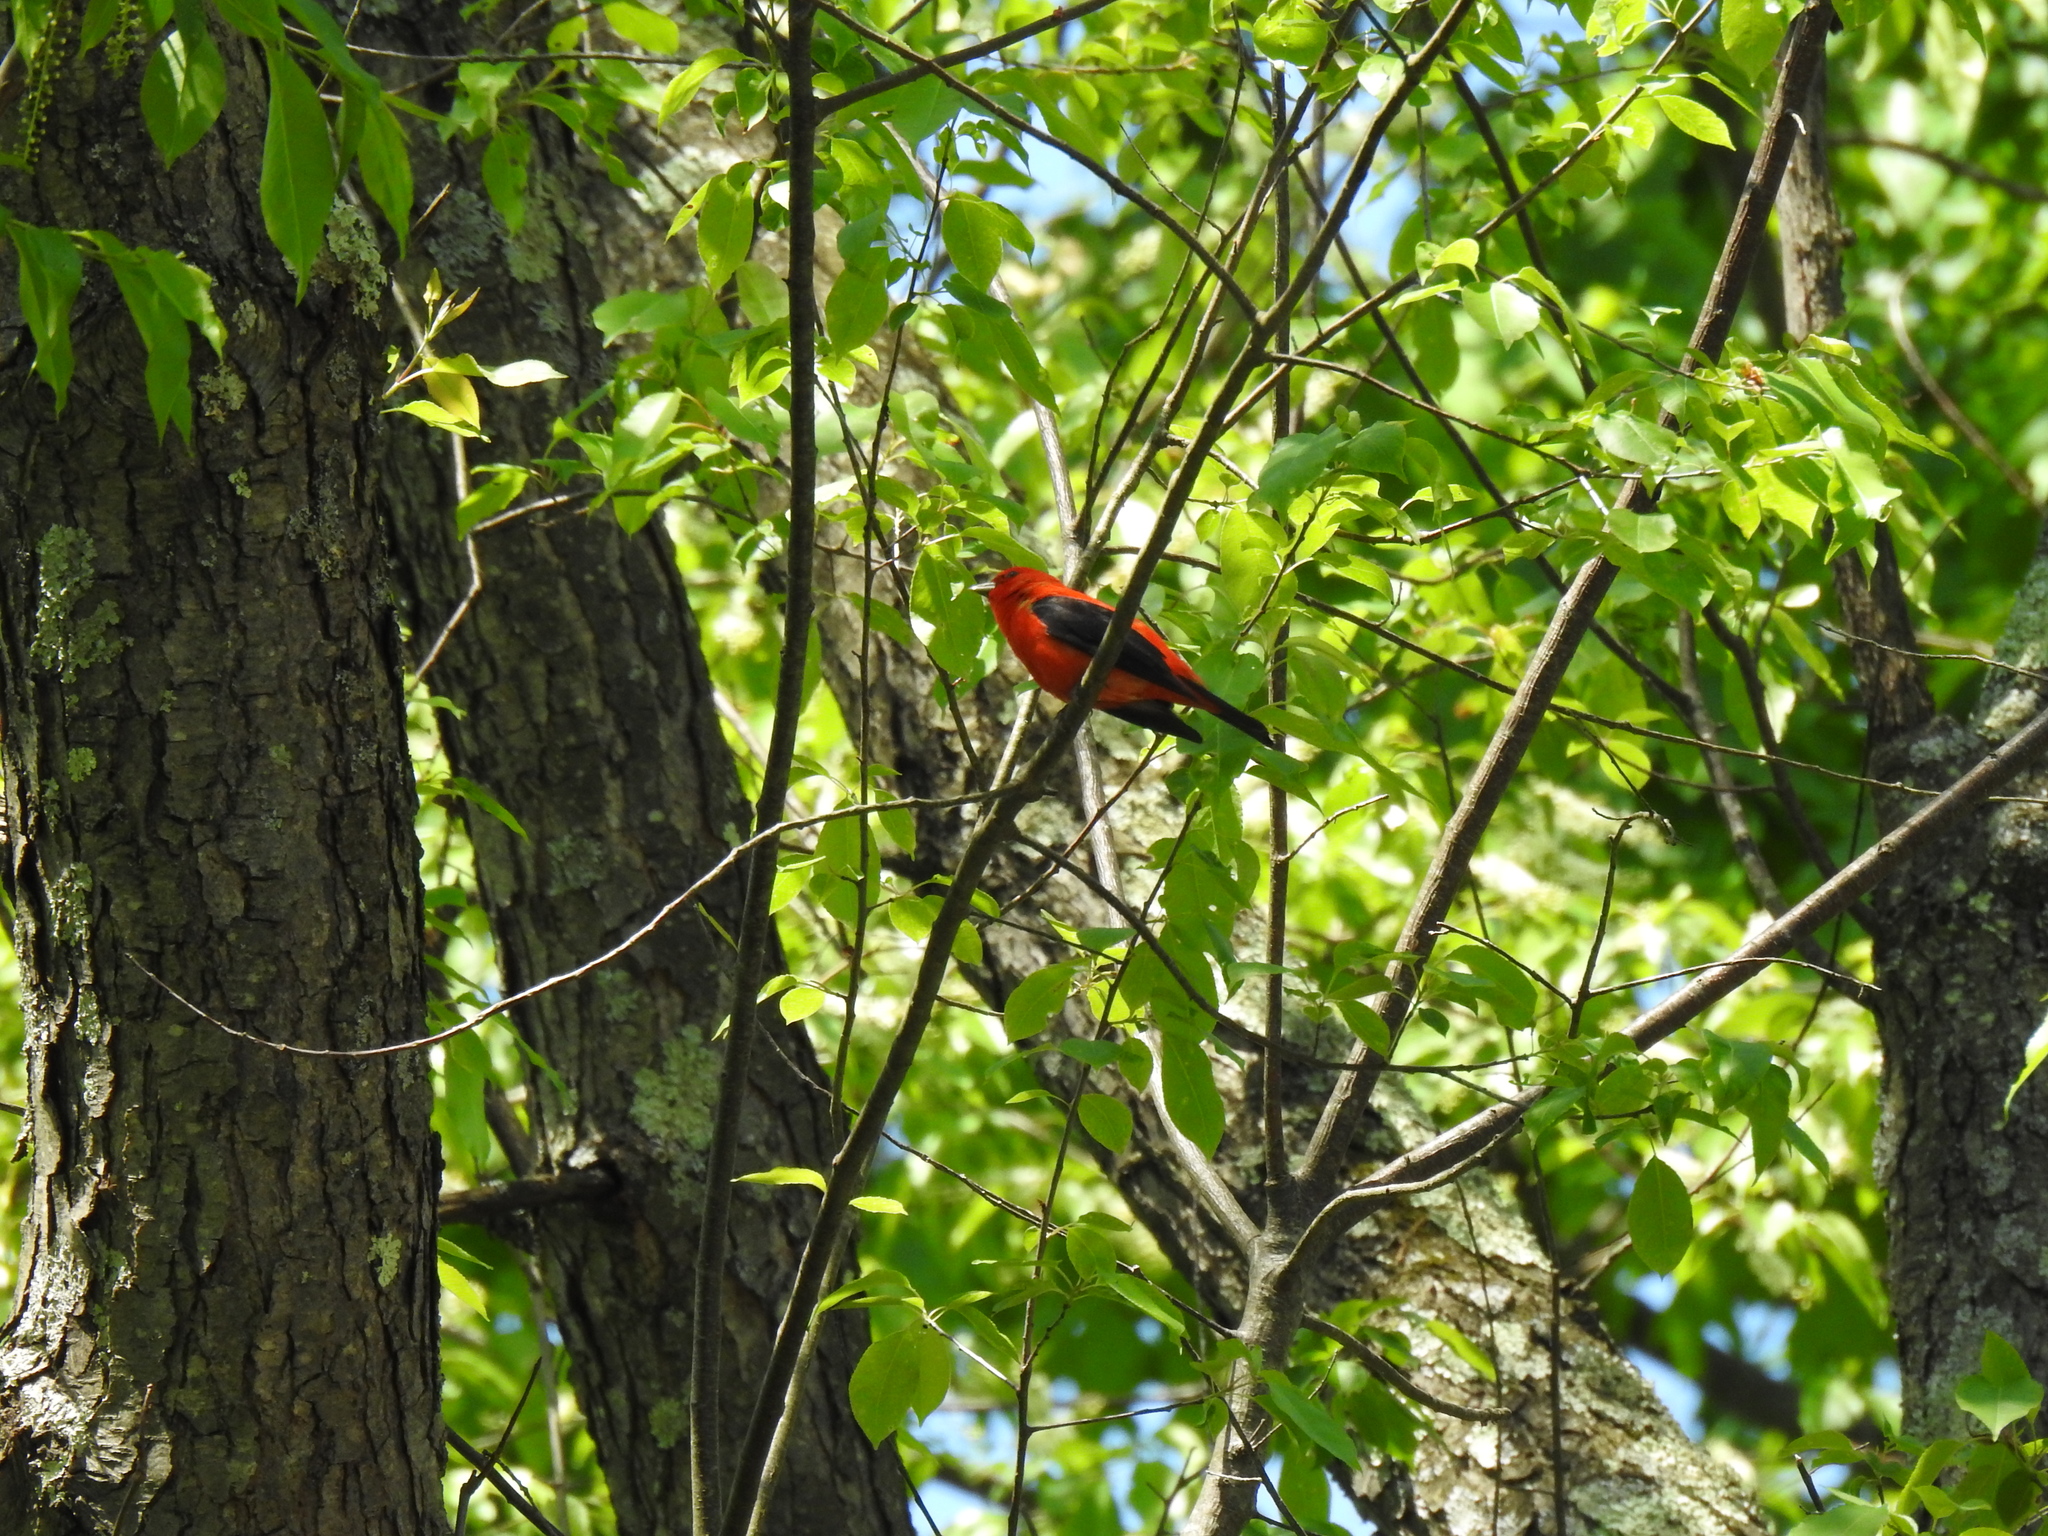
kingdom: Animalia
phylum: Chordata
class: Aves
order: Passeriformes
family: Cardinalidae
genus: Piranga
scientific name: Piranga olivacea
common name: Scarlet tanager
